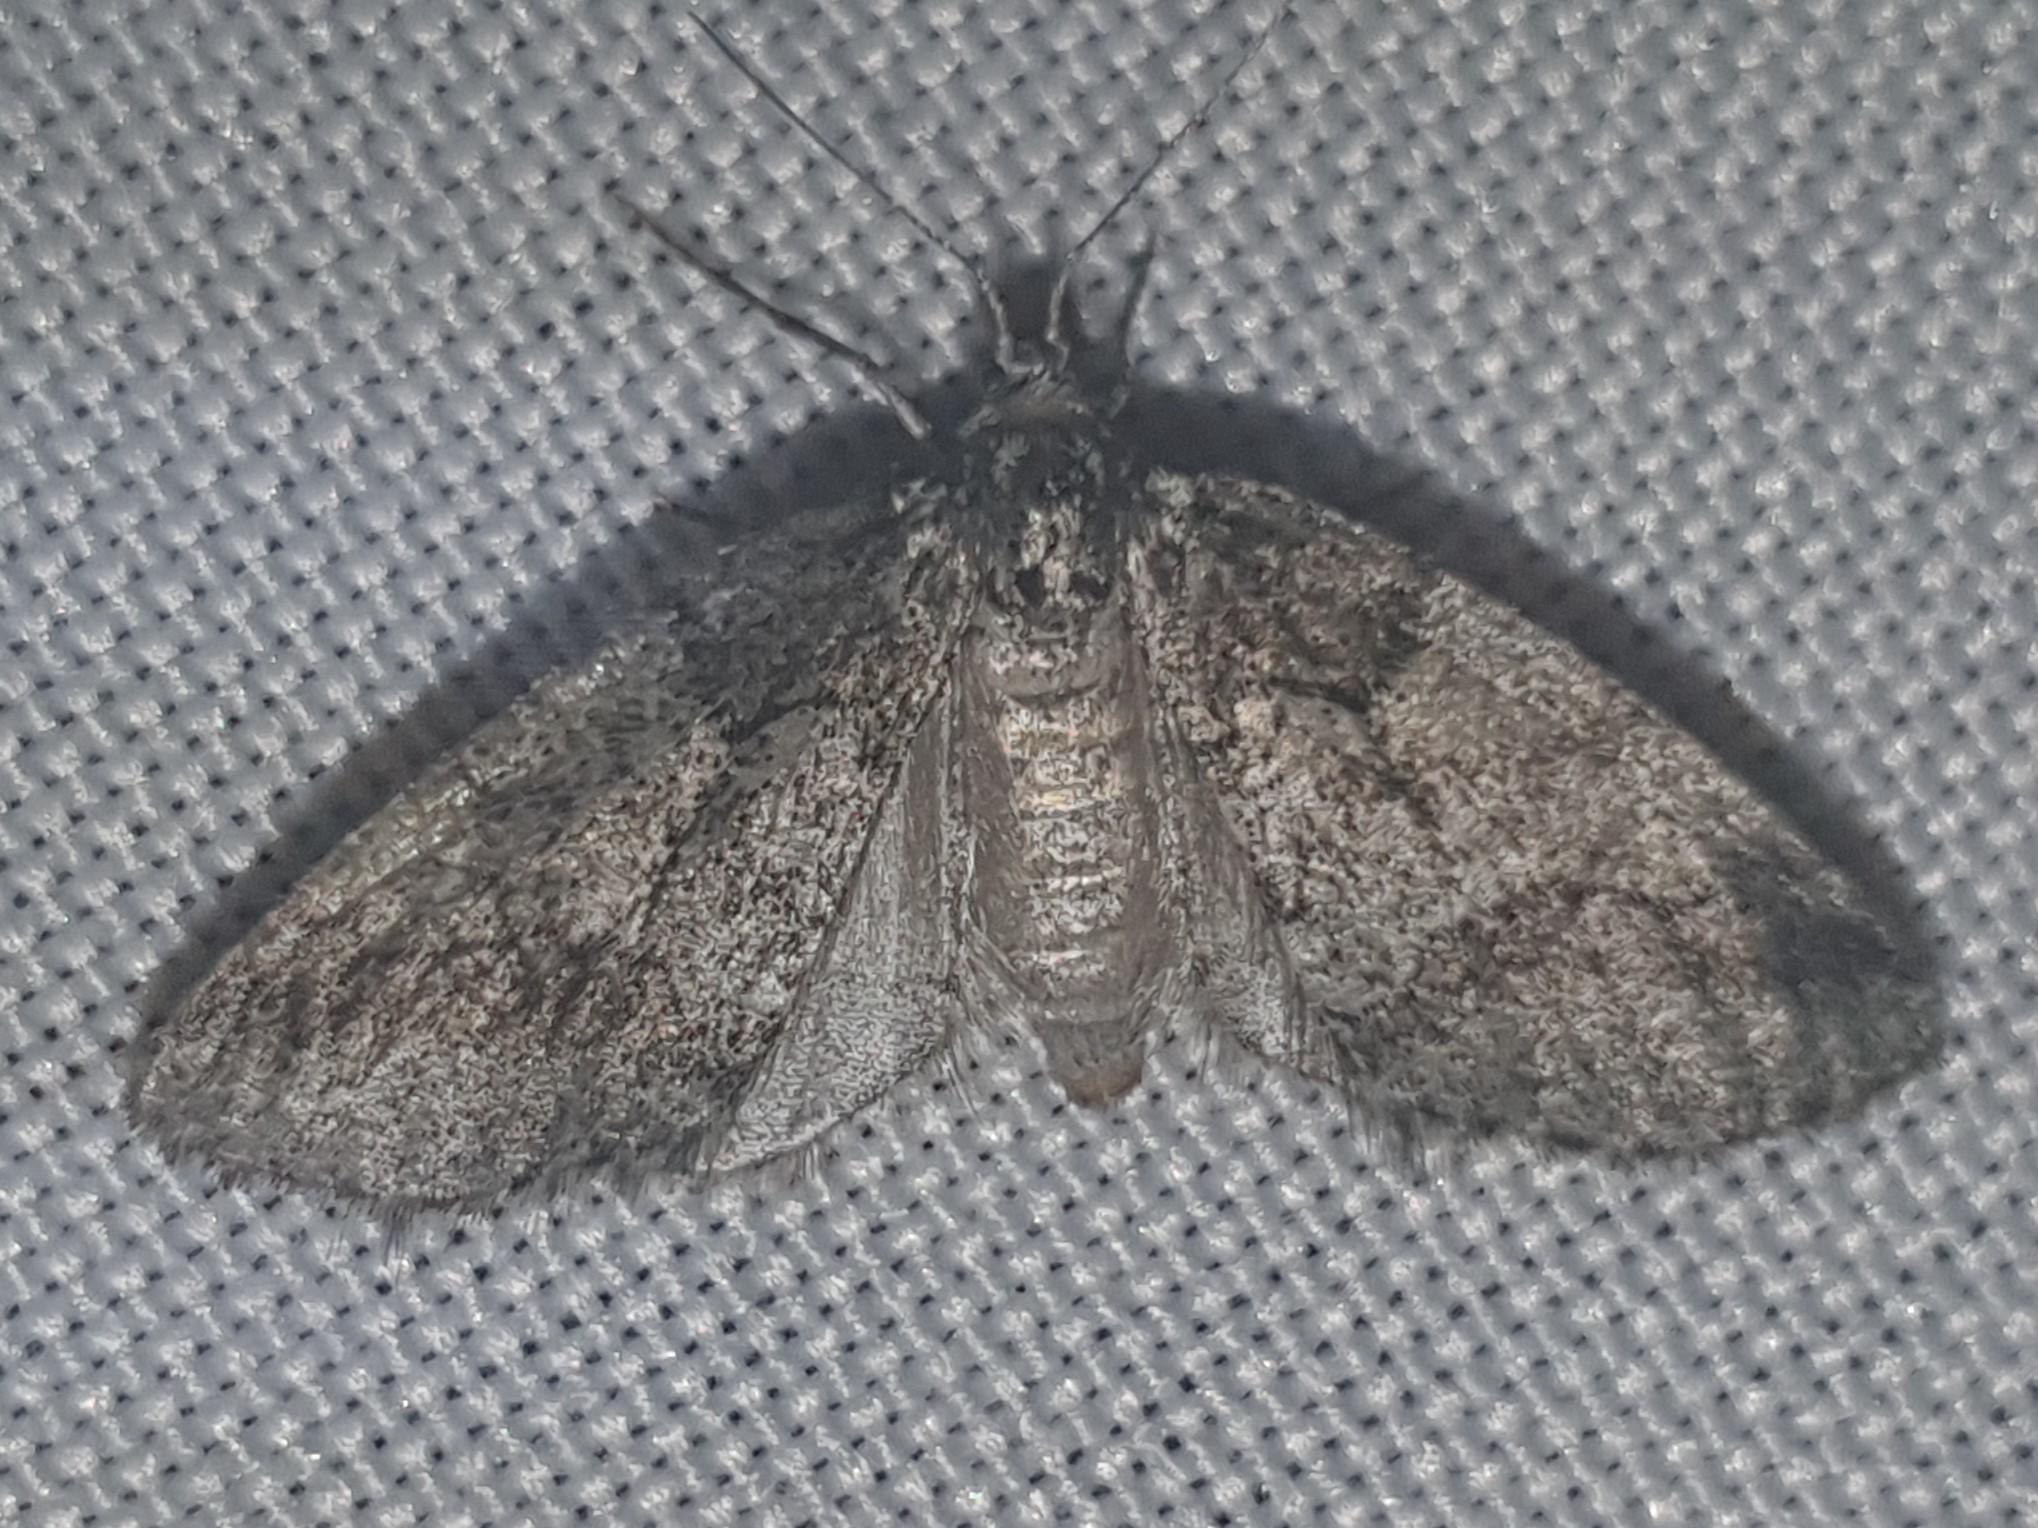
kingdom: Animalia
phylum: Arthropoda
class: Insecta
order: Lepidoptera
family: Geometridae
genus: Tephronia
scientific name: Tephronia lhommaria
